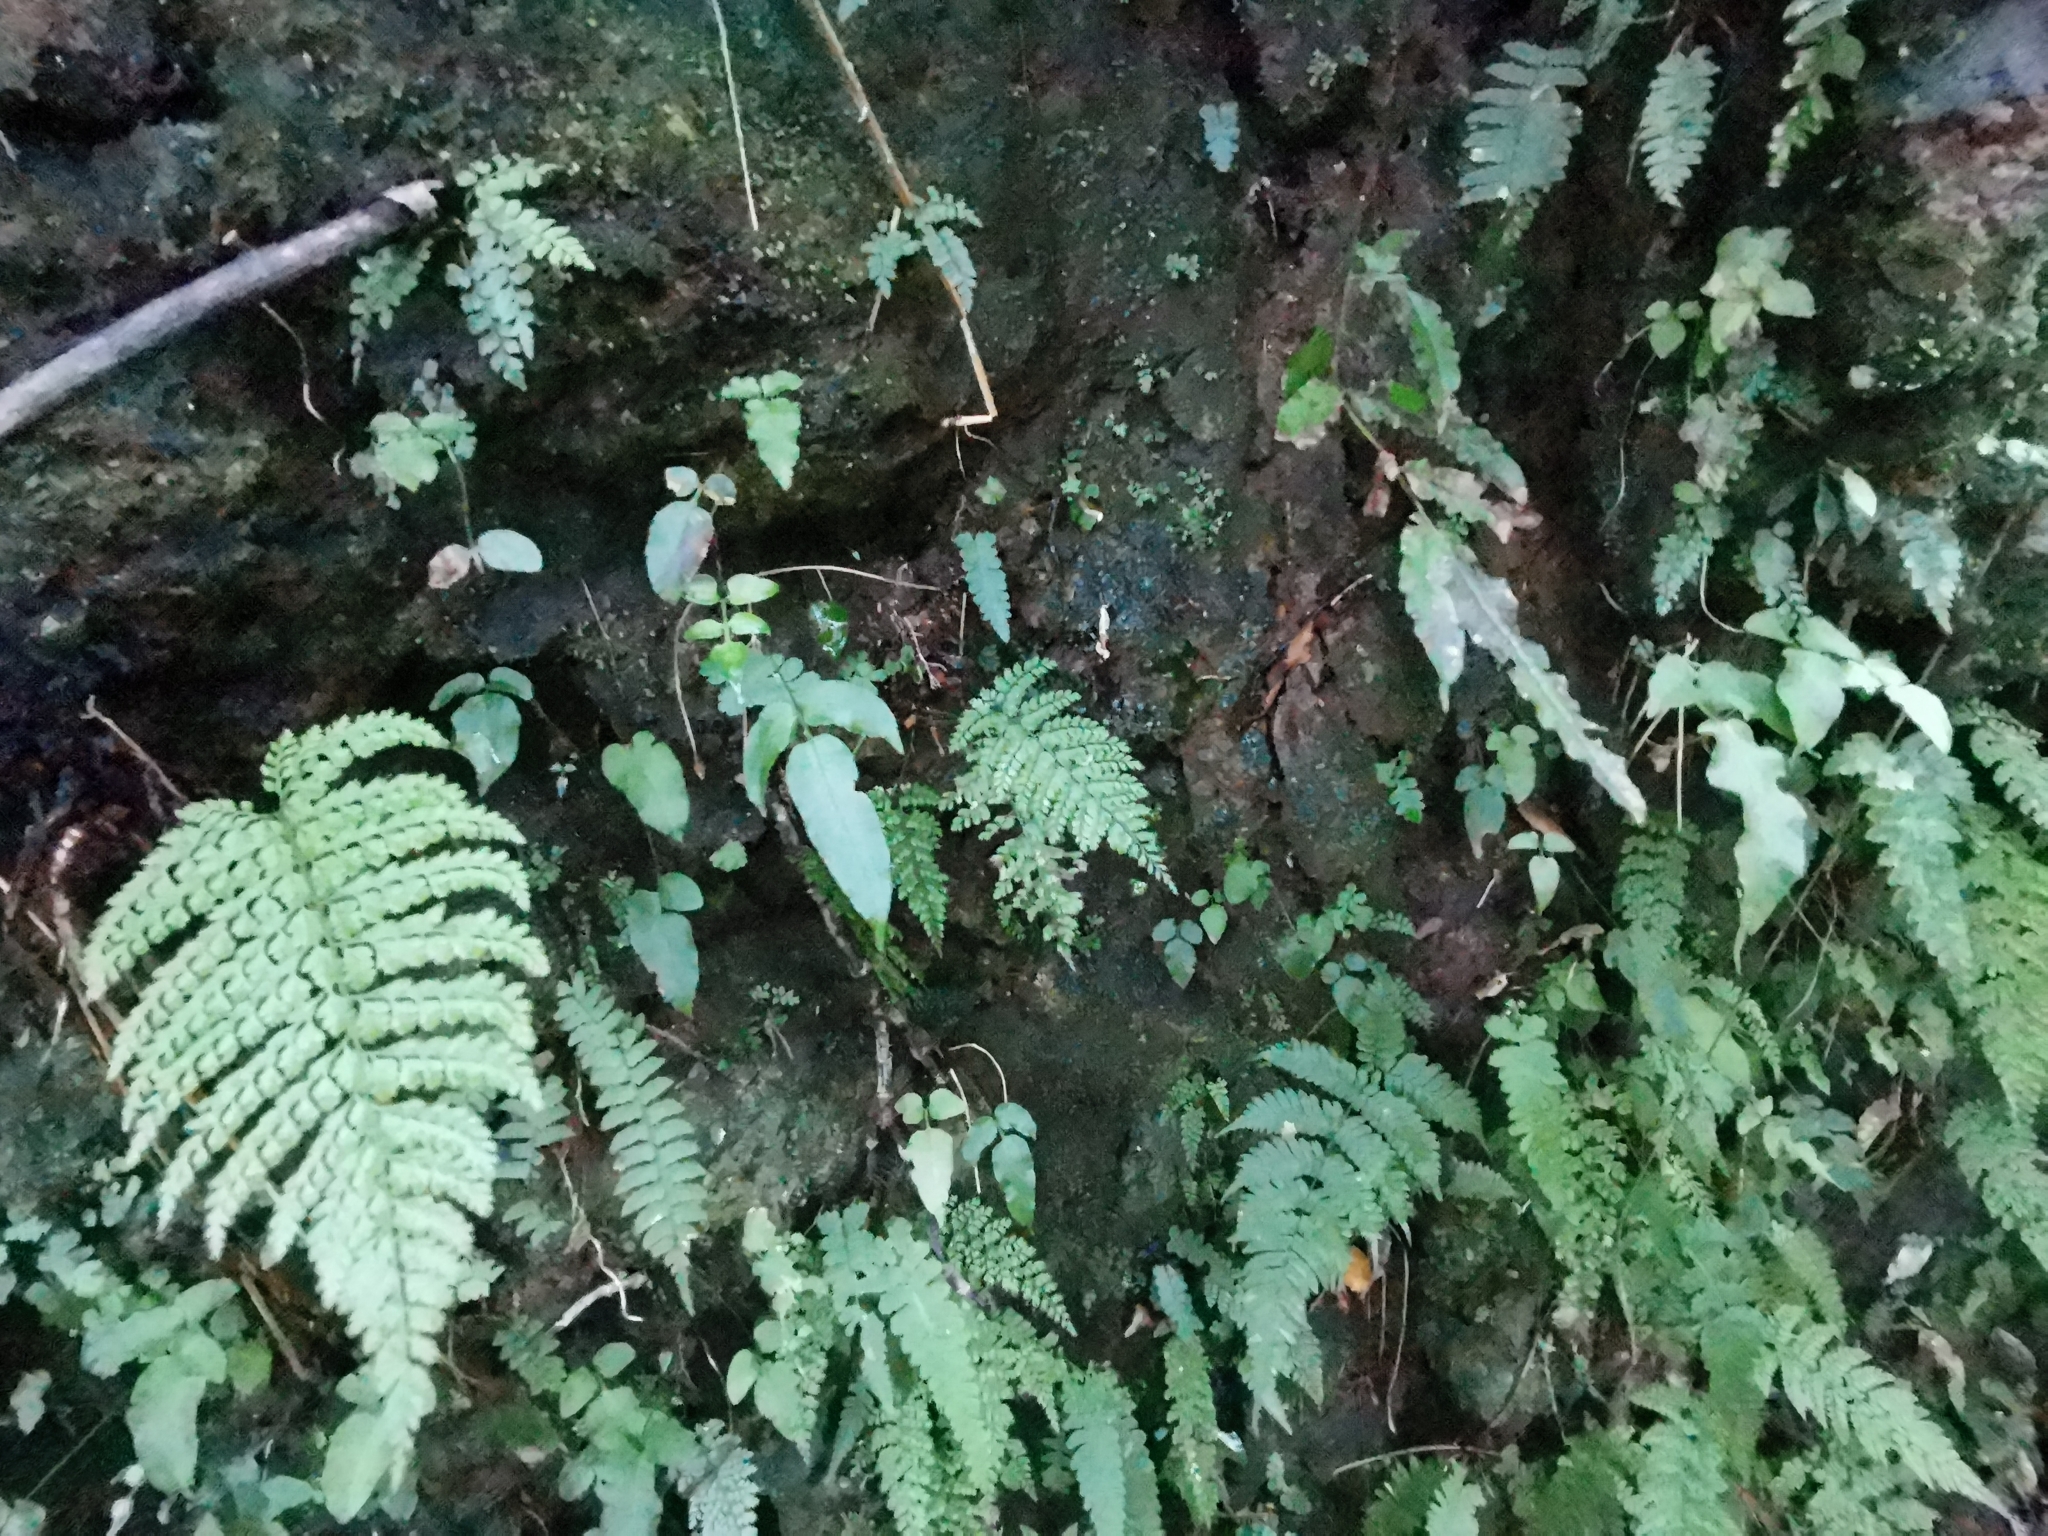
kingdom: Plantae
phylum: Tracheophyta
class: Polypodiopsida
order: Polypodiales
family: Dryopteridaceae
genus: Arachniodes
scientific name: Arachniodes standishii
